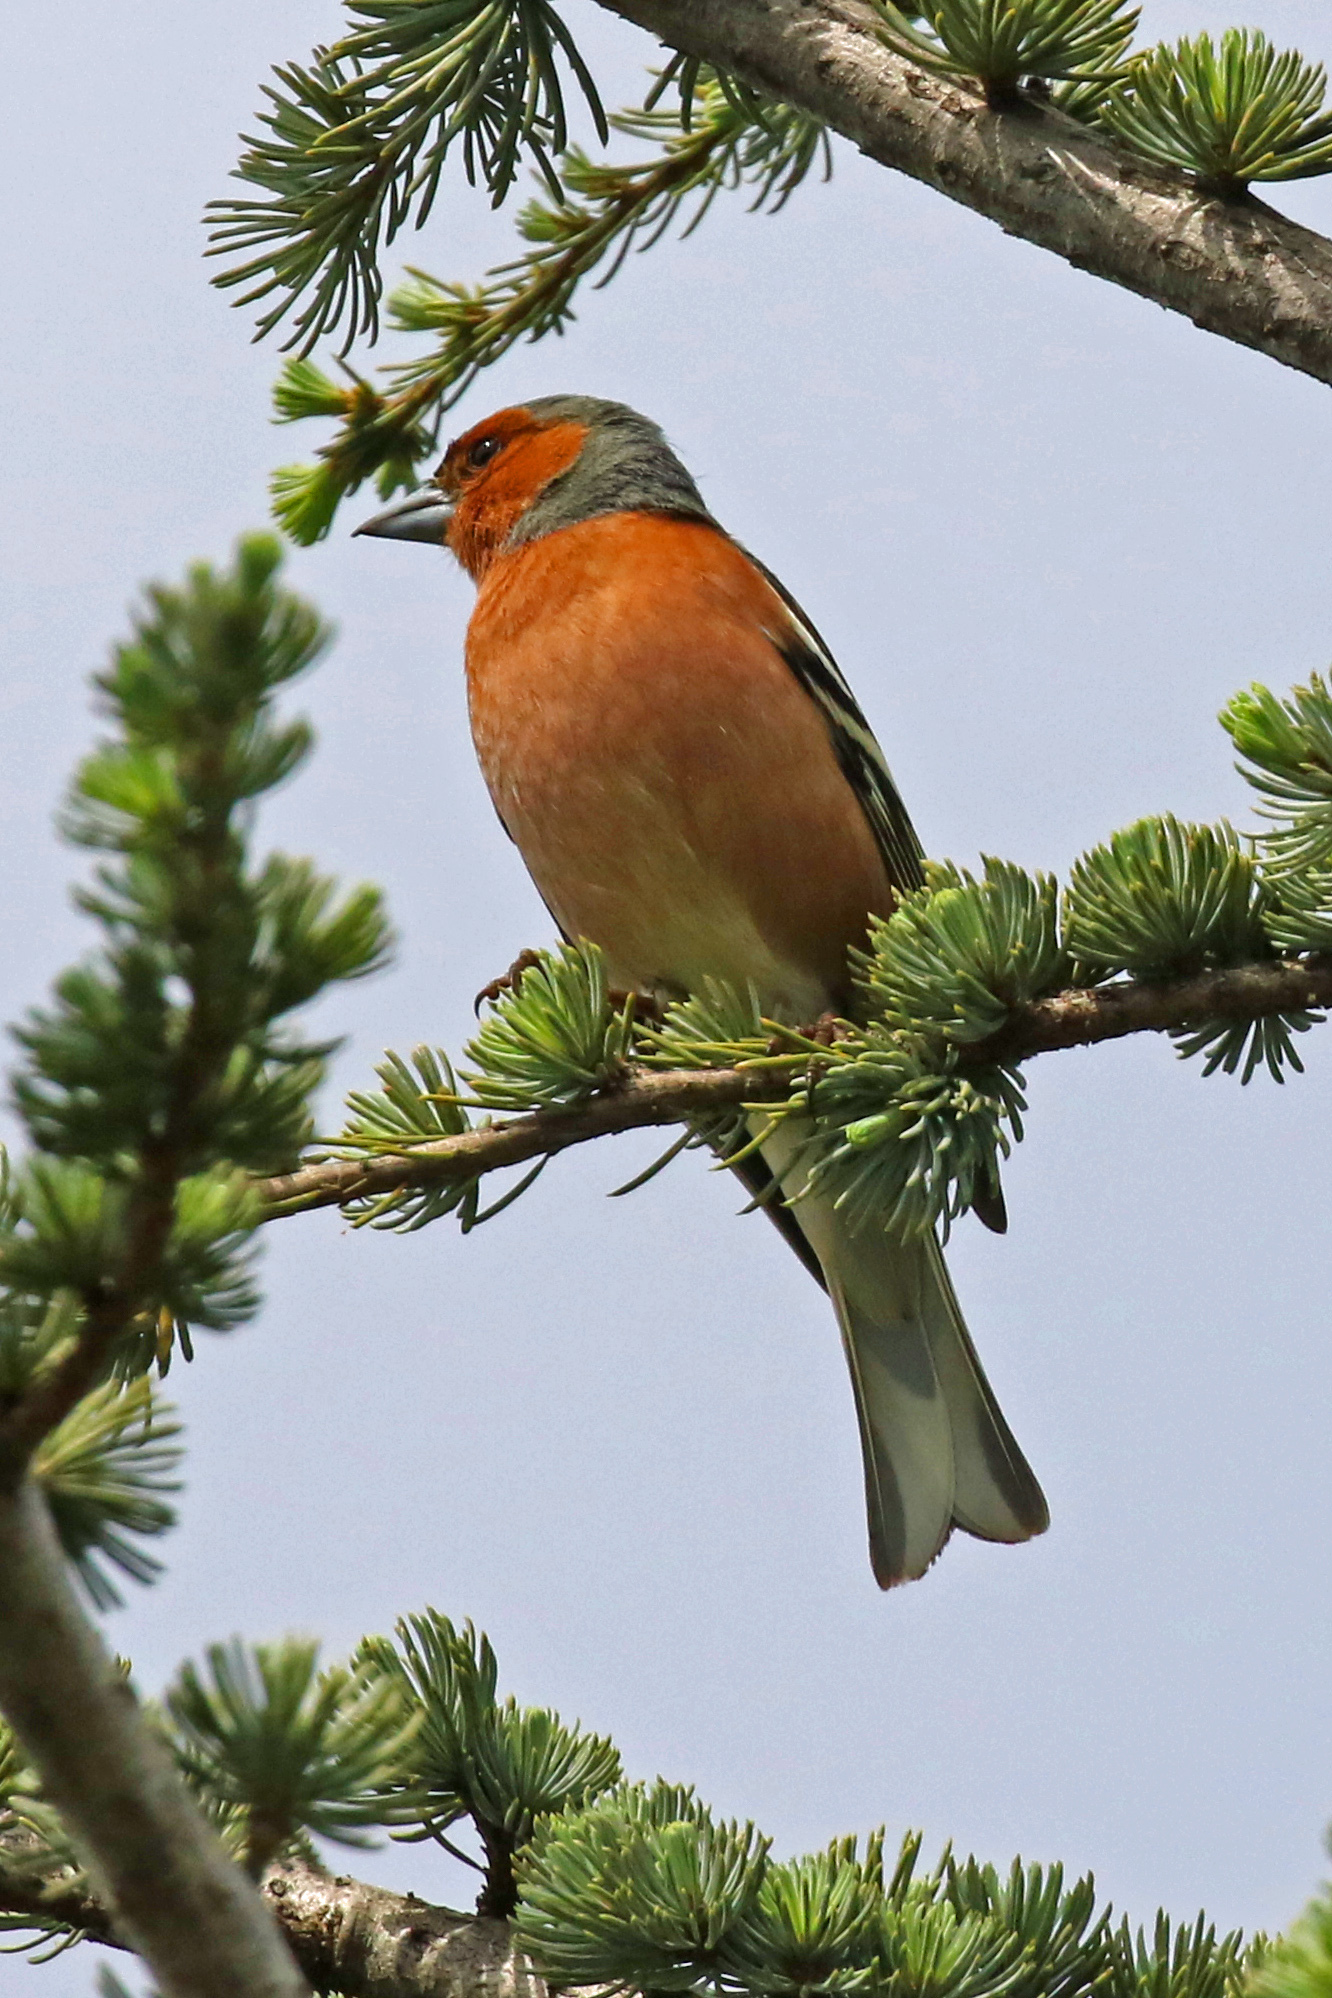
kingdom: Animalia
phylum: Chordata
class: Aves
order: Passeriformes
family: Fringillidae
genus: Fringilla
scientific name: Fringilla coelebs
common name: Common chaffinch
